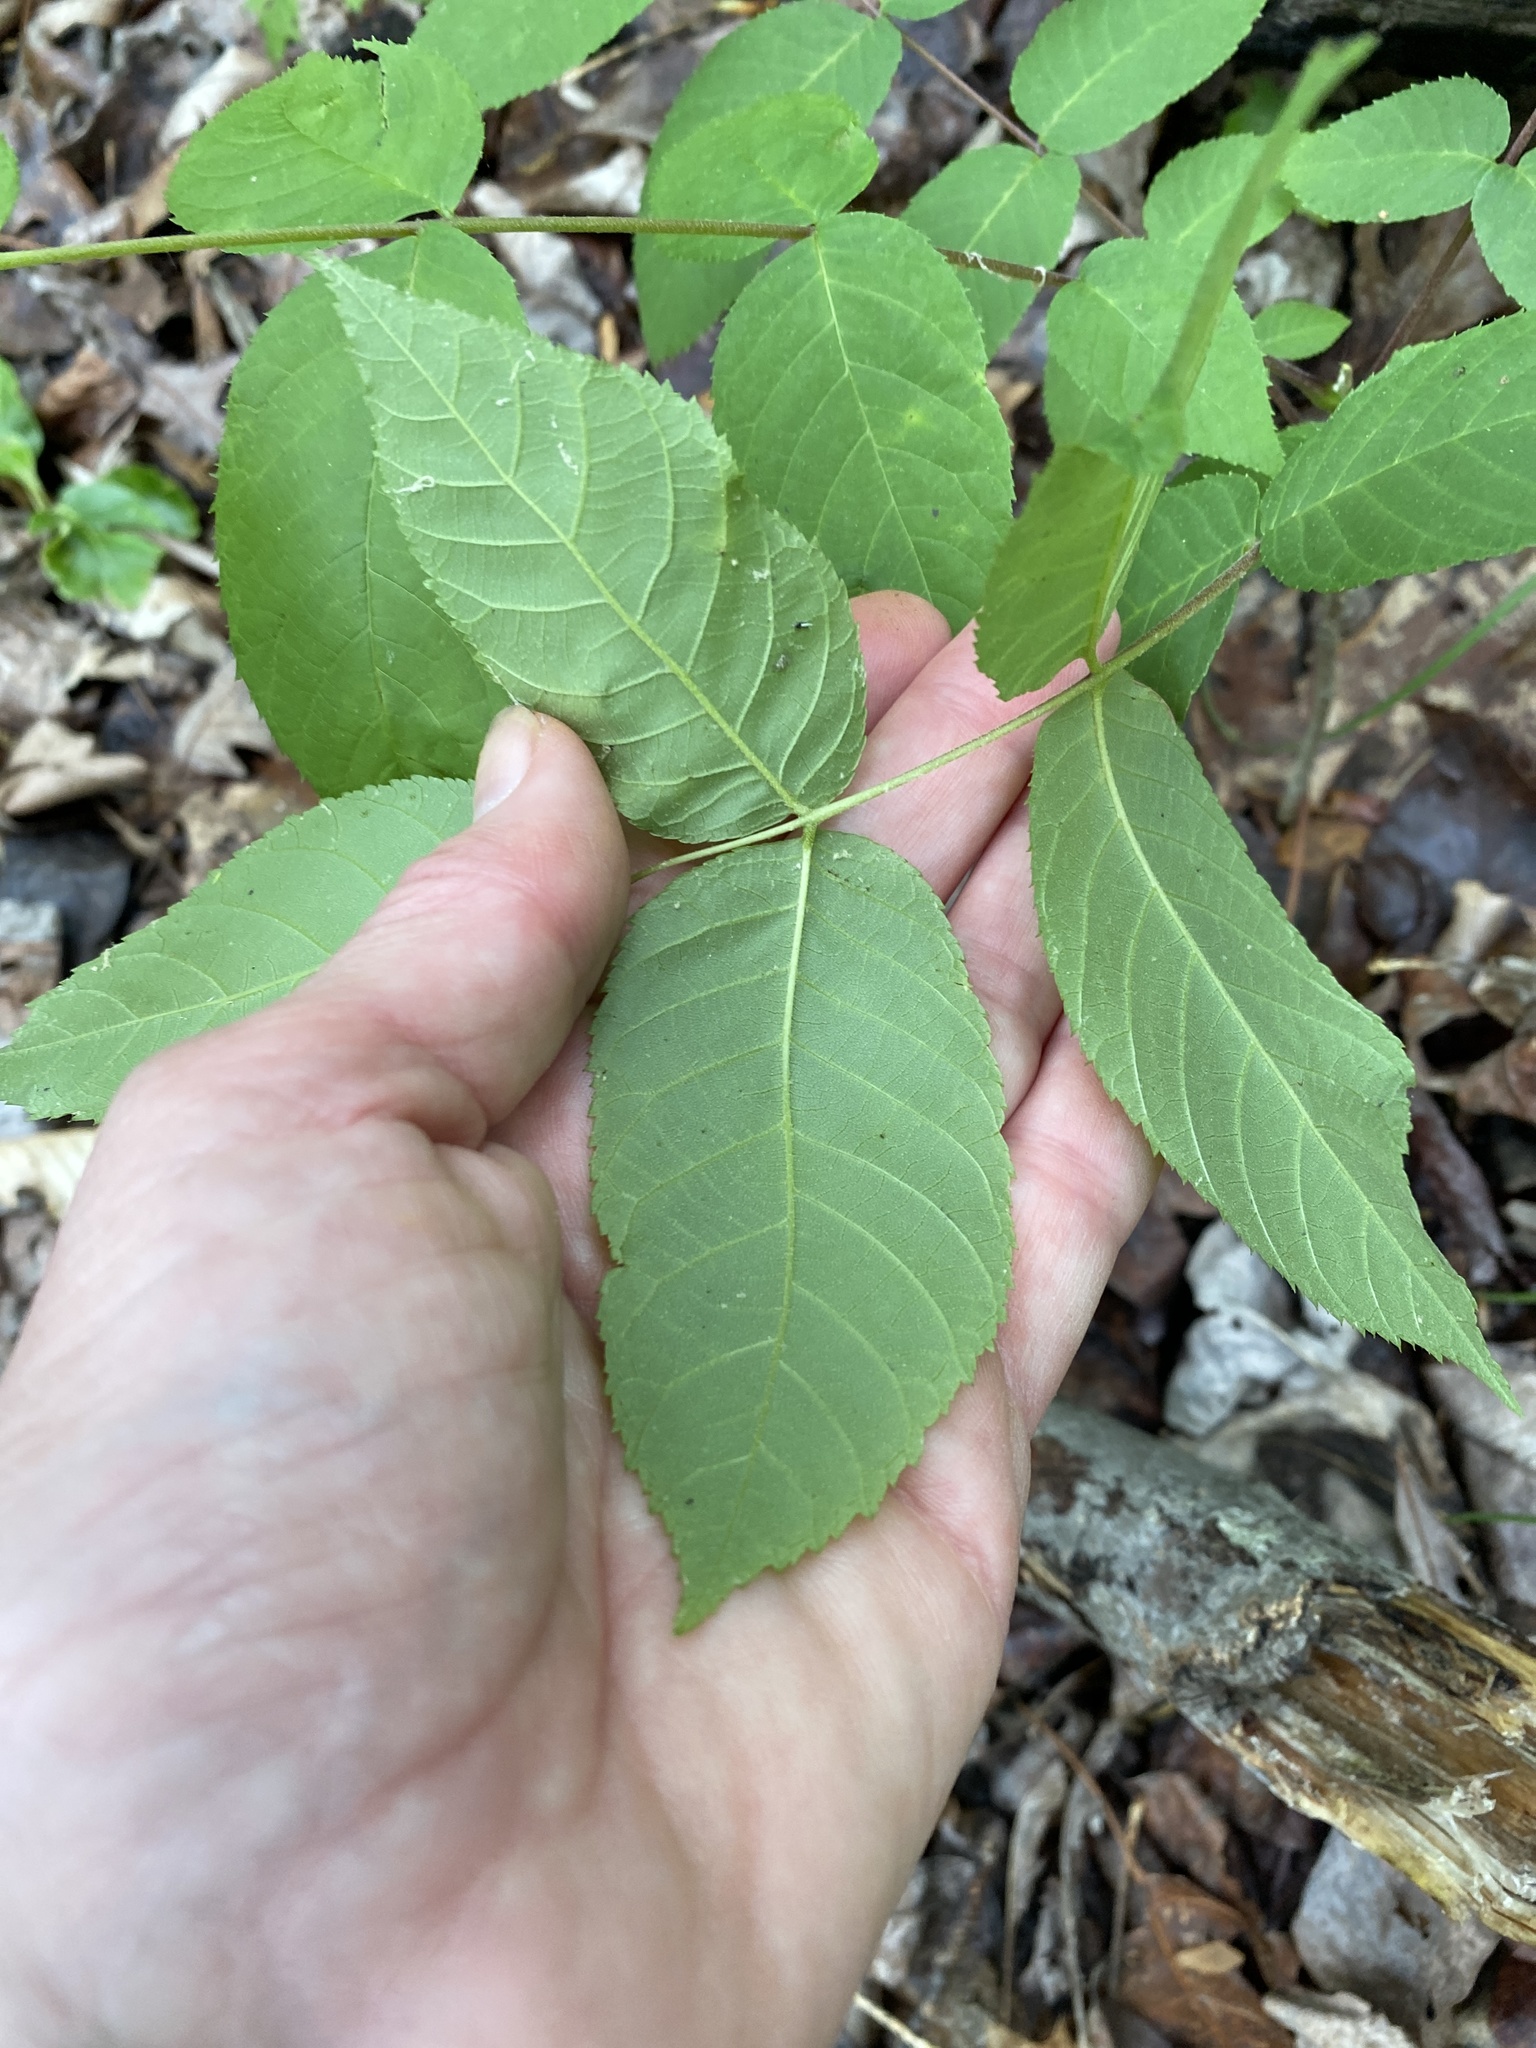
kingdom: Plantae
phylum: Tracheophyta
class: Magnoliopsida
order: Fagales
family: Juglandaceae
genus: Juglans
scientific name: Juglans nigra
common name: Black walnut
